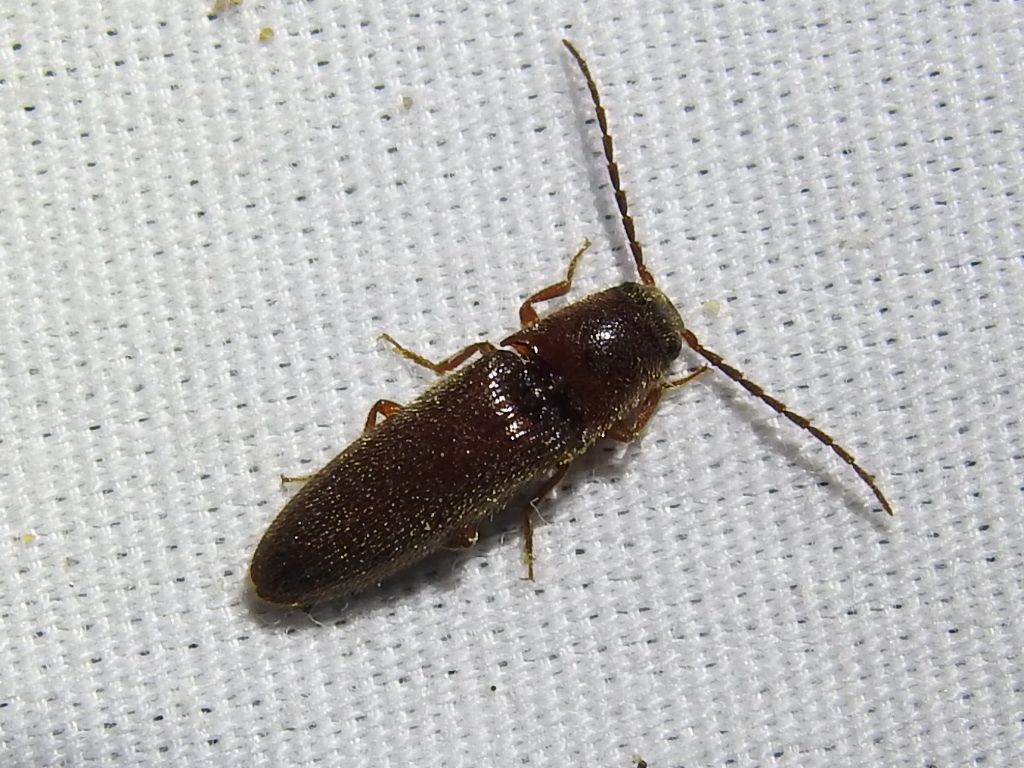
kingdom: Animalia
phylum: Arthropoda
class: Insecta
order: Coleoptera
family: Elateridae
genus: Dipropus
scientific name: Dipropus
